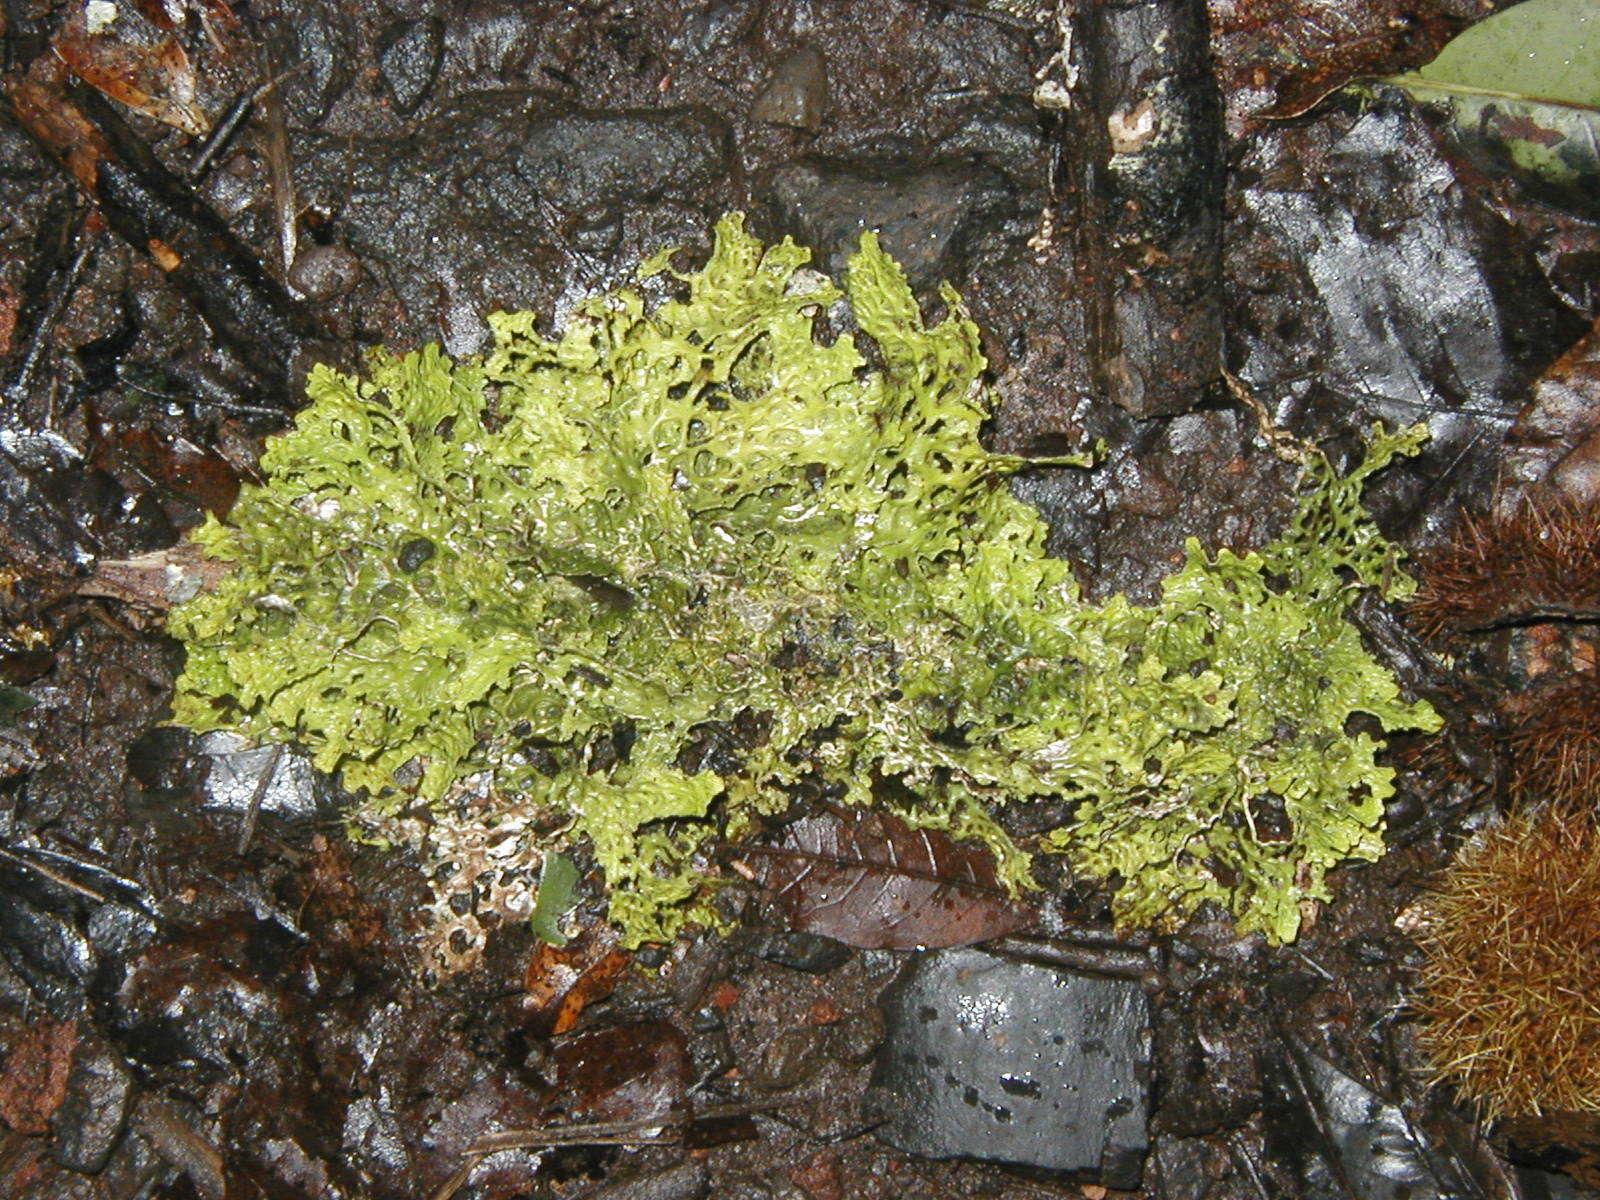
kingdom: Fungi
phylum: Ascomycota
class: Lecanoromycetes
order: Peltigerales
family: Lobariaceae
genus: Lobaria
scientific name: Lobaria pulmonaria
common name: Lungwort
